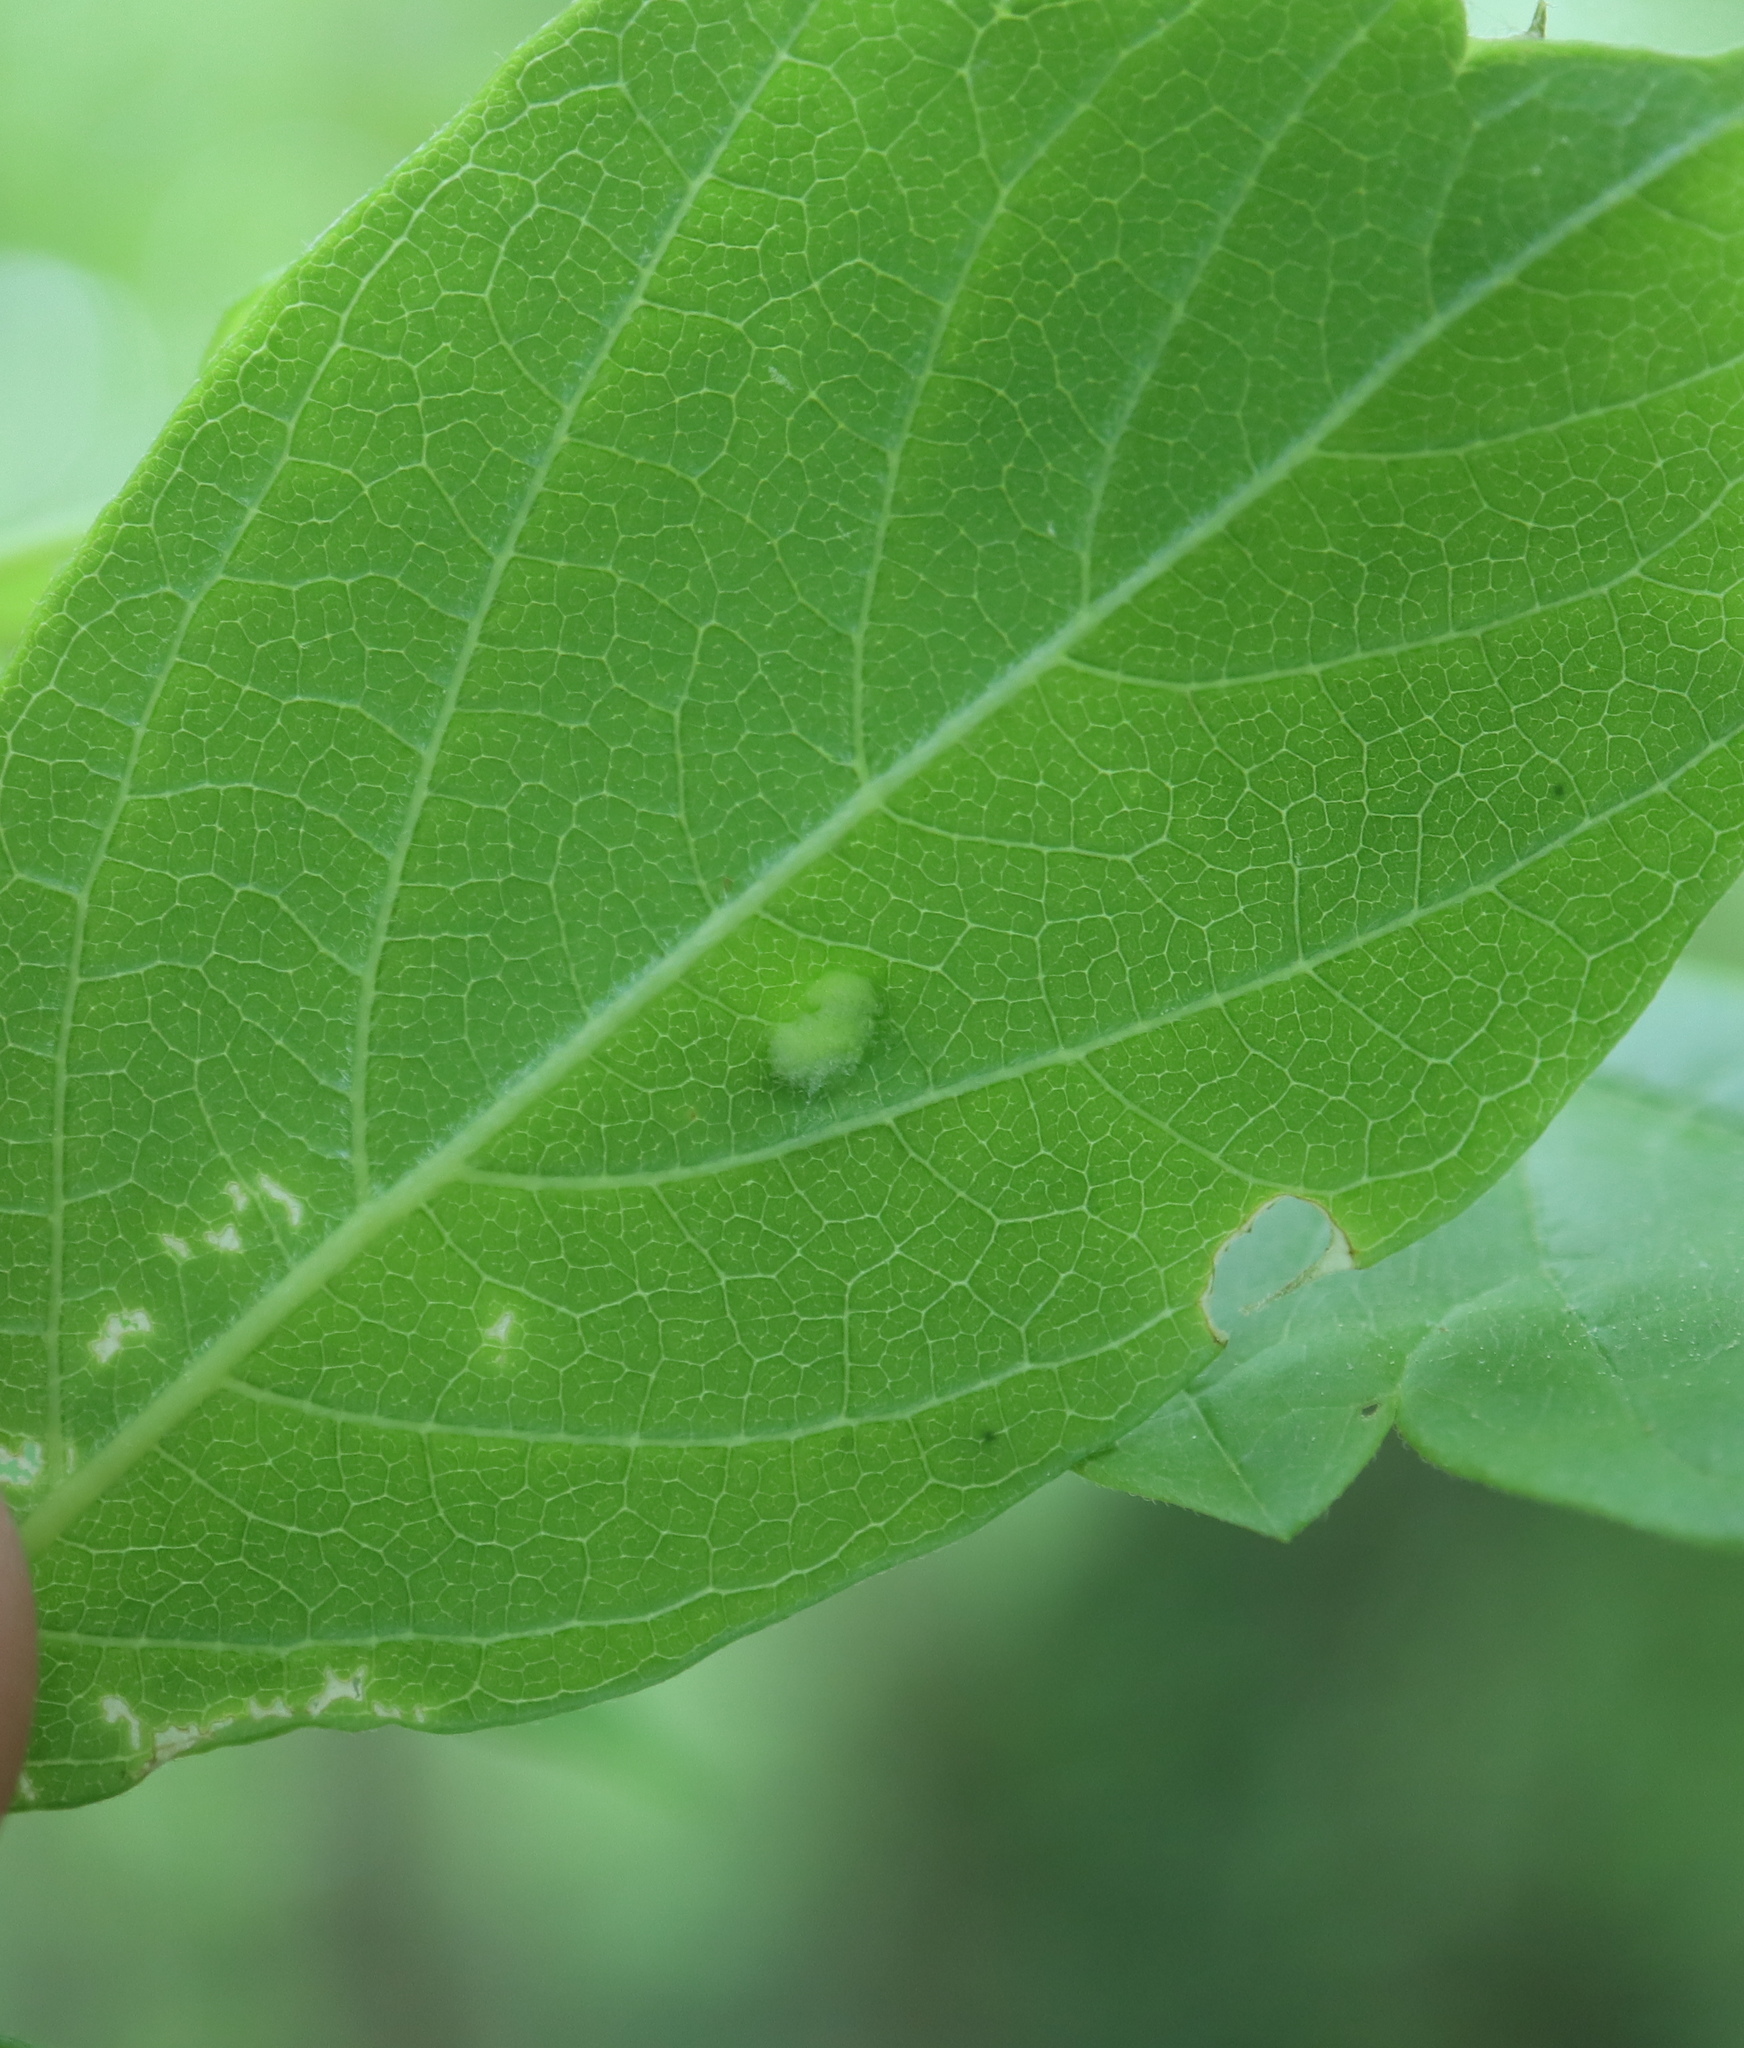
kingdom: Animalia
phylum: Arthropoda
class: Arachnida
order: Trombidiformes
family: Eriophyidae
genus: Aceria
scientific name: Aceria
